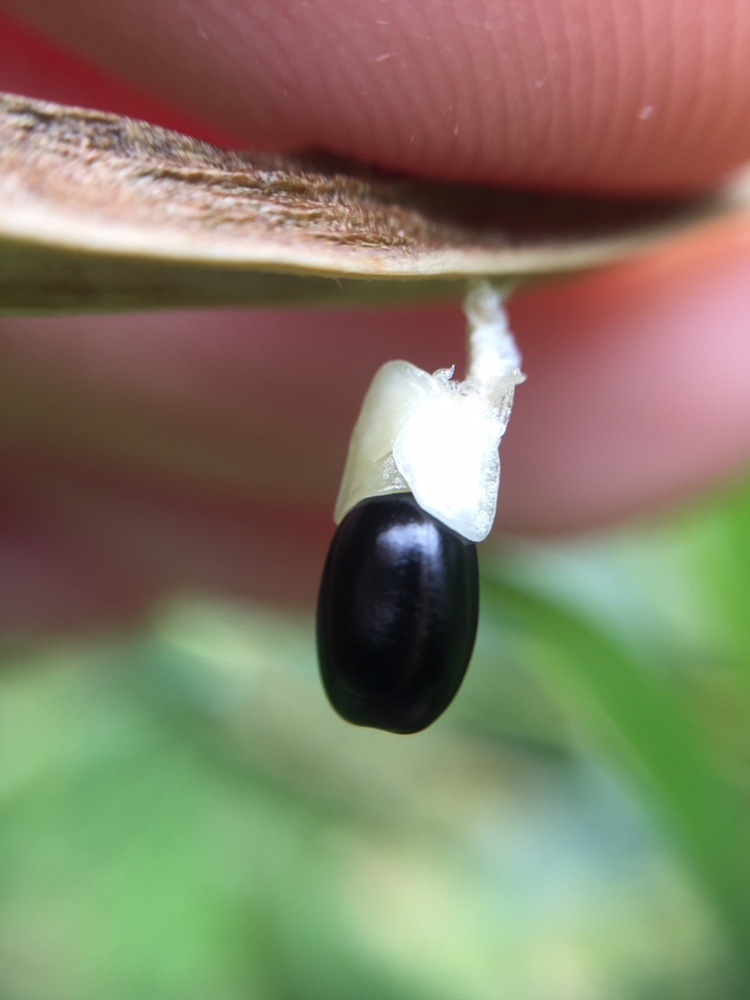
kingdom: Plantae
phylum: Tracheophyta
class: Magnoliopsida
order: Fabales
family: Fabaceae
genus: Acacia
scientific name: Acacia longifolia
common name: Sydney golden wattle
